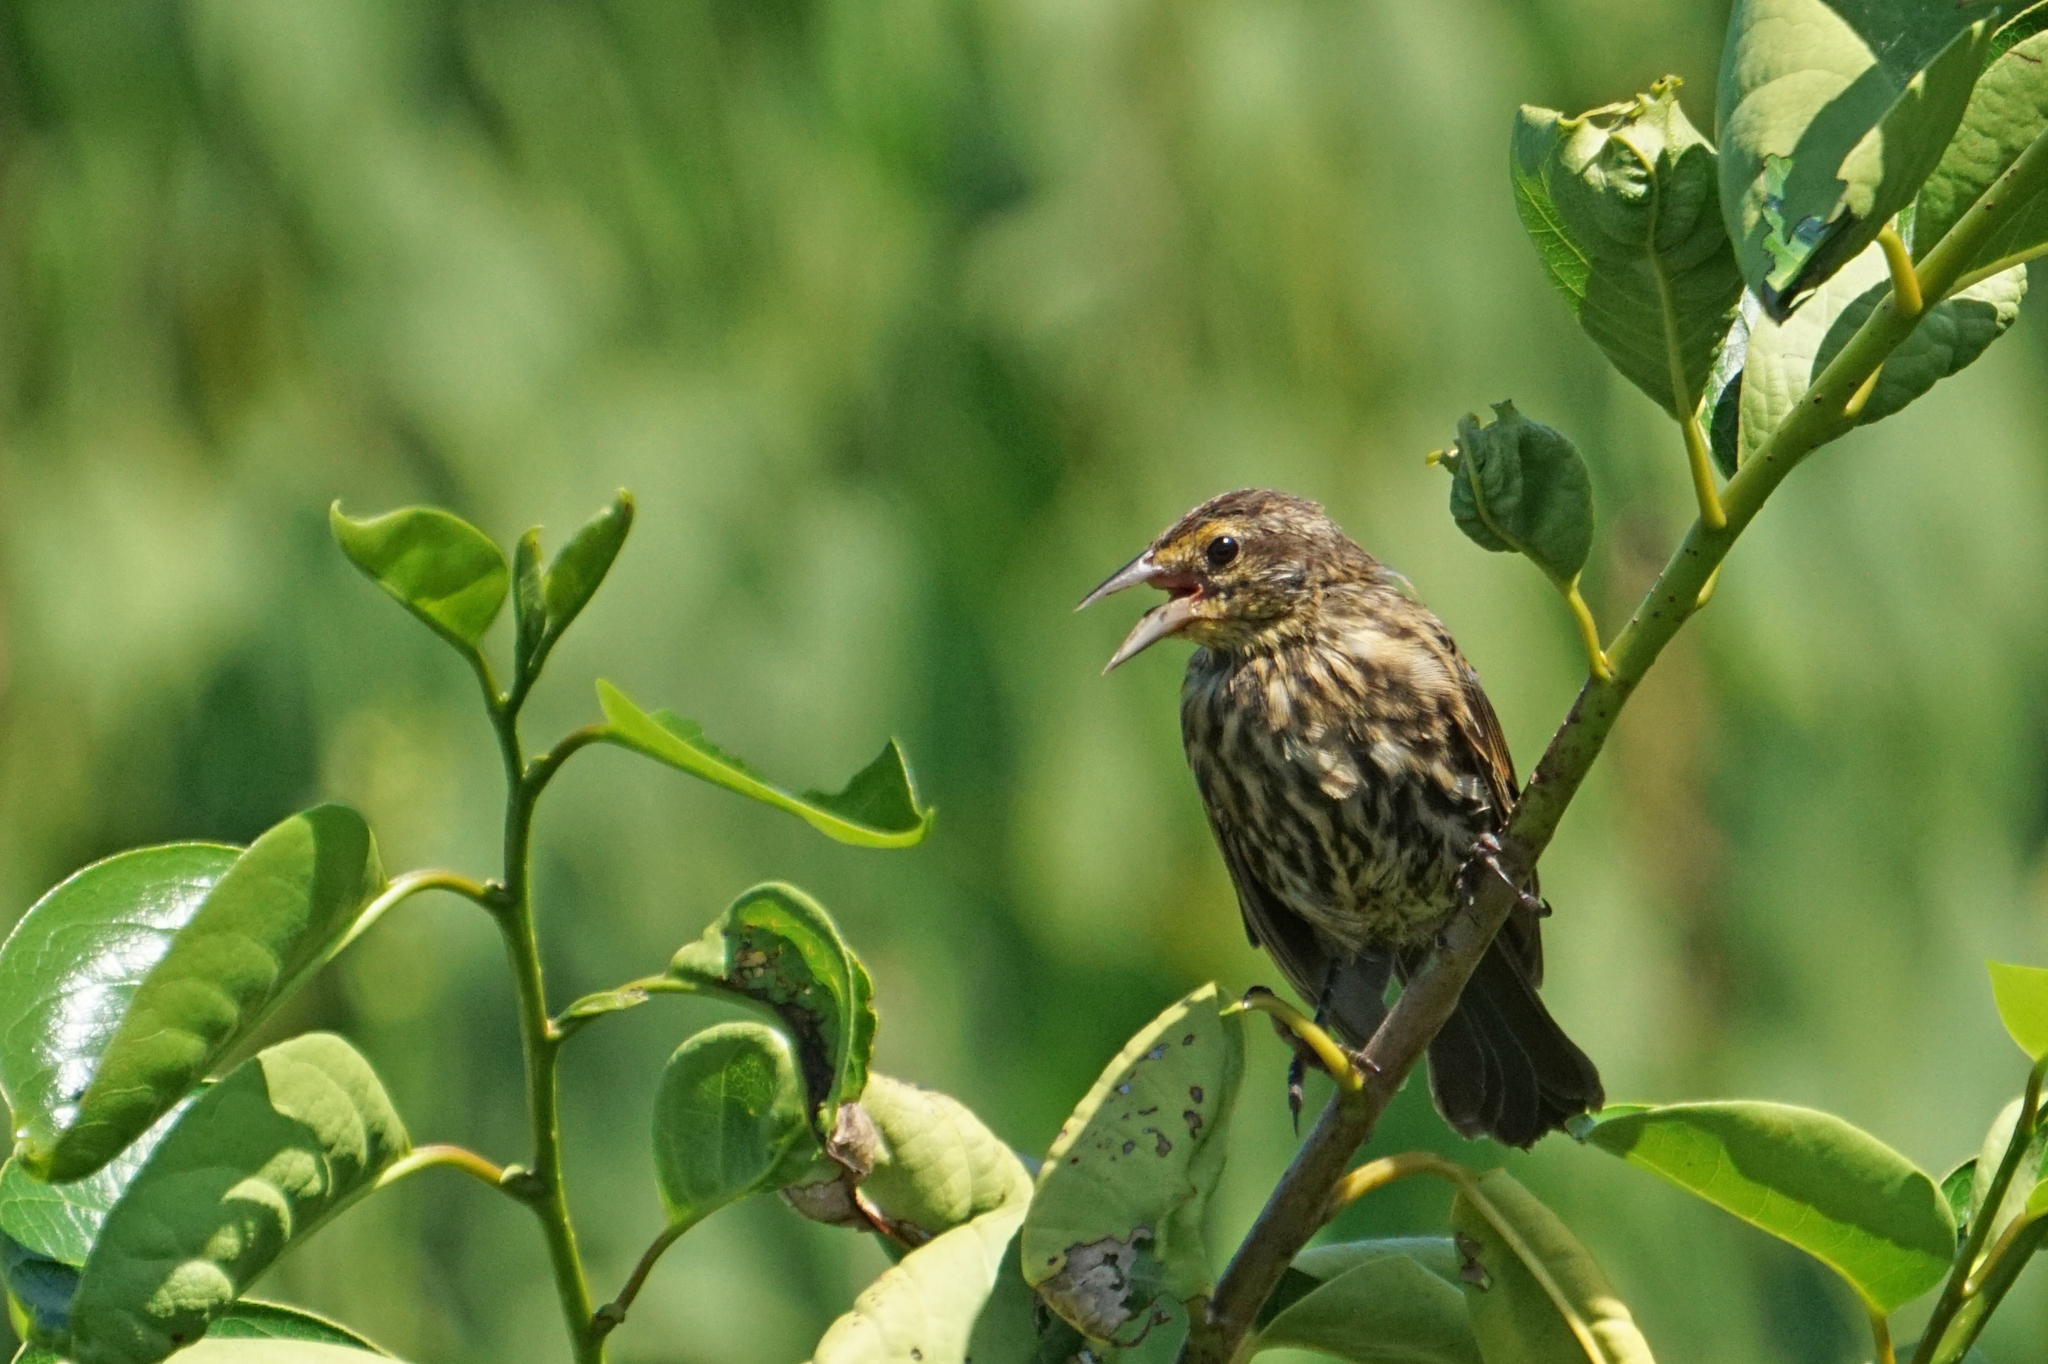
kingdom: Animalia
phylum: Chordata
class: Aves
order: Passeriformes
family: Icteridae
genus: Agelaius
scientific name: Agelaius phoeniceus
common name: Red-winged blackbird
